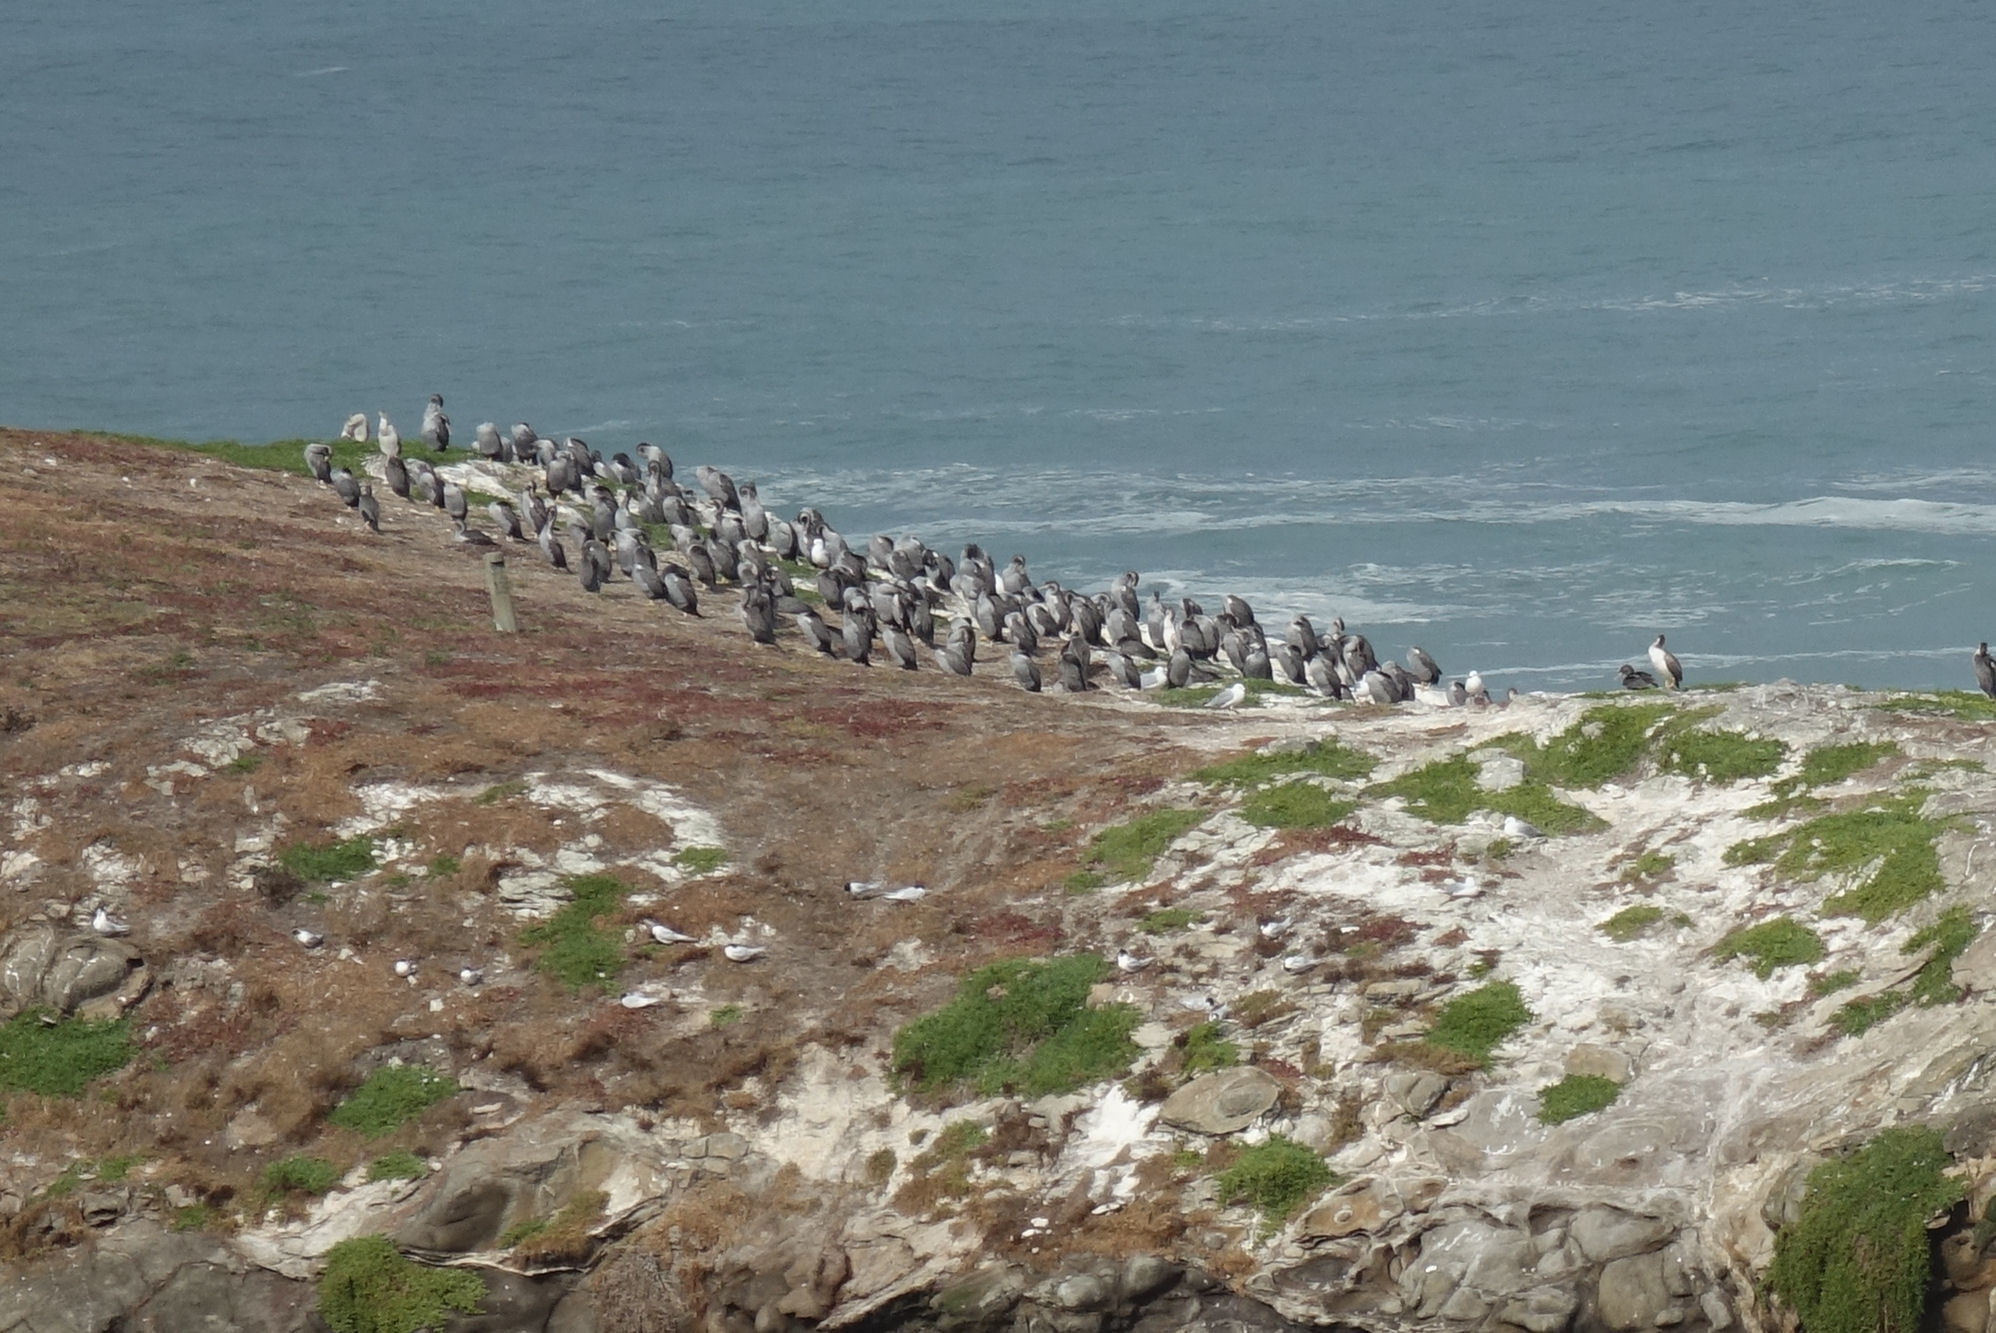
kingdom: Animalia
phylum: Chordata
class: Aves
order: Suliformes
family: Phalacrocoracidae
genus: Phalacrocorax
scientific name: Phalacrocorax punctatus
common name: Spotted shag
